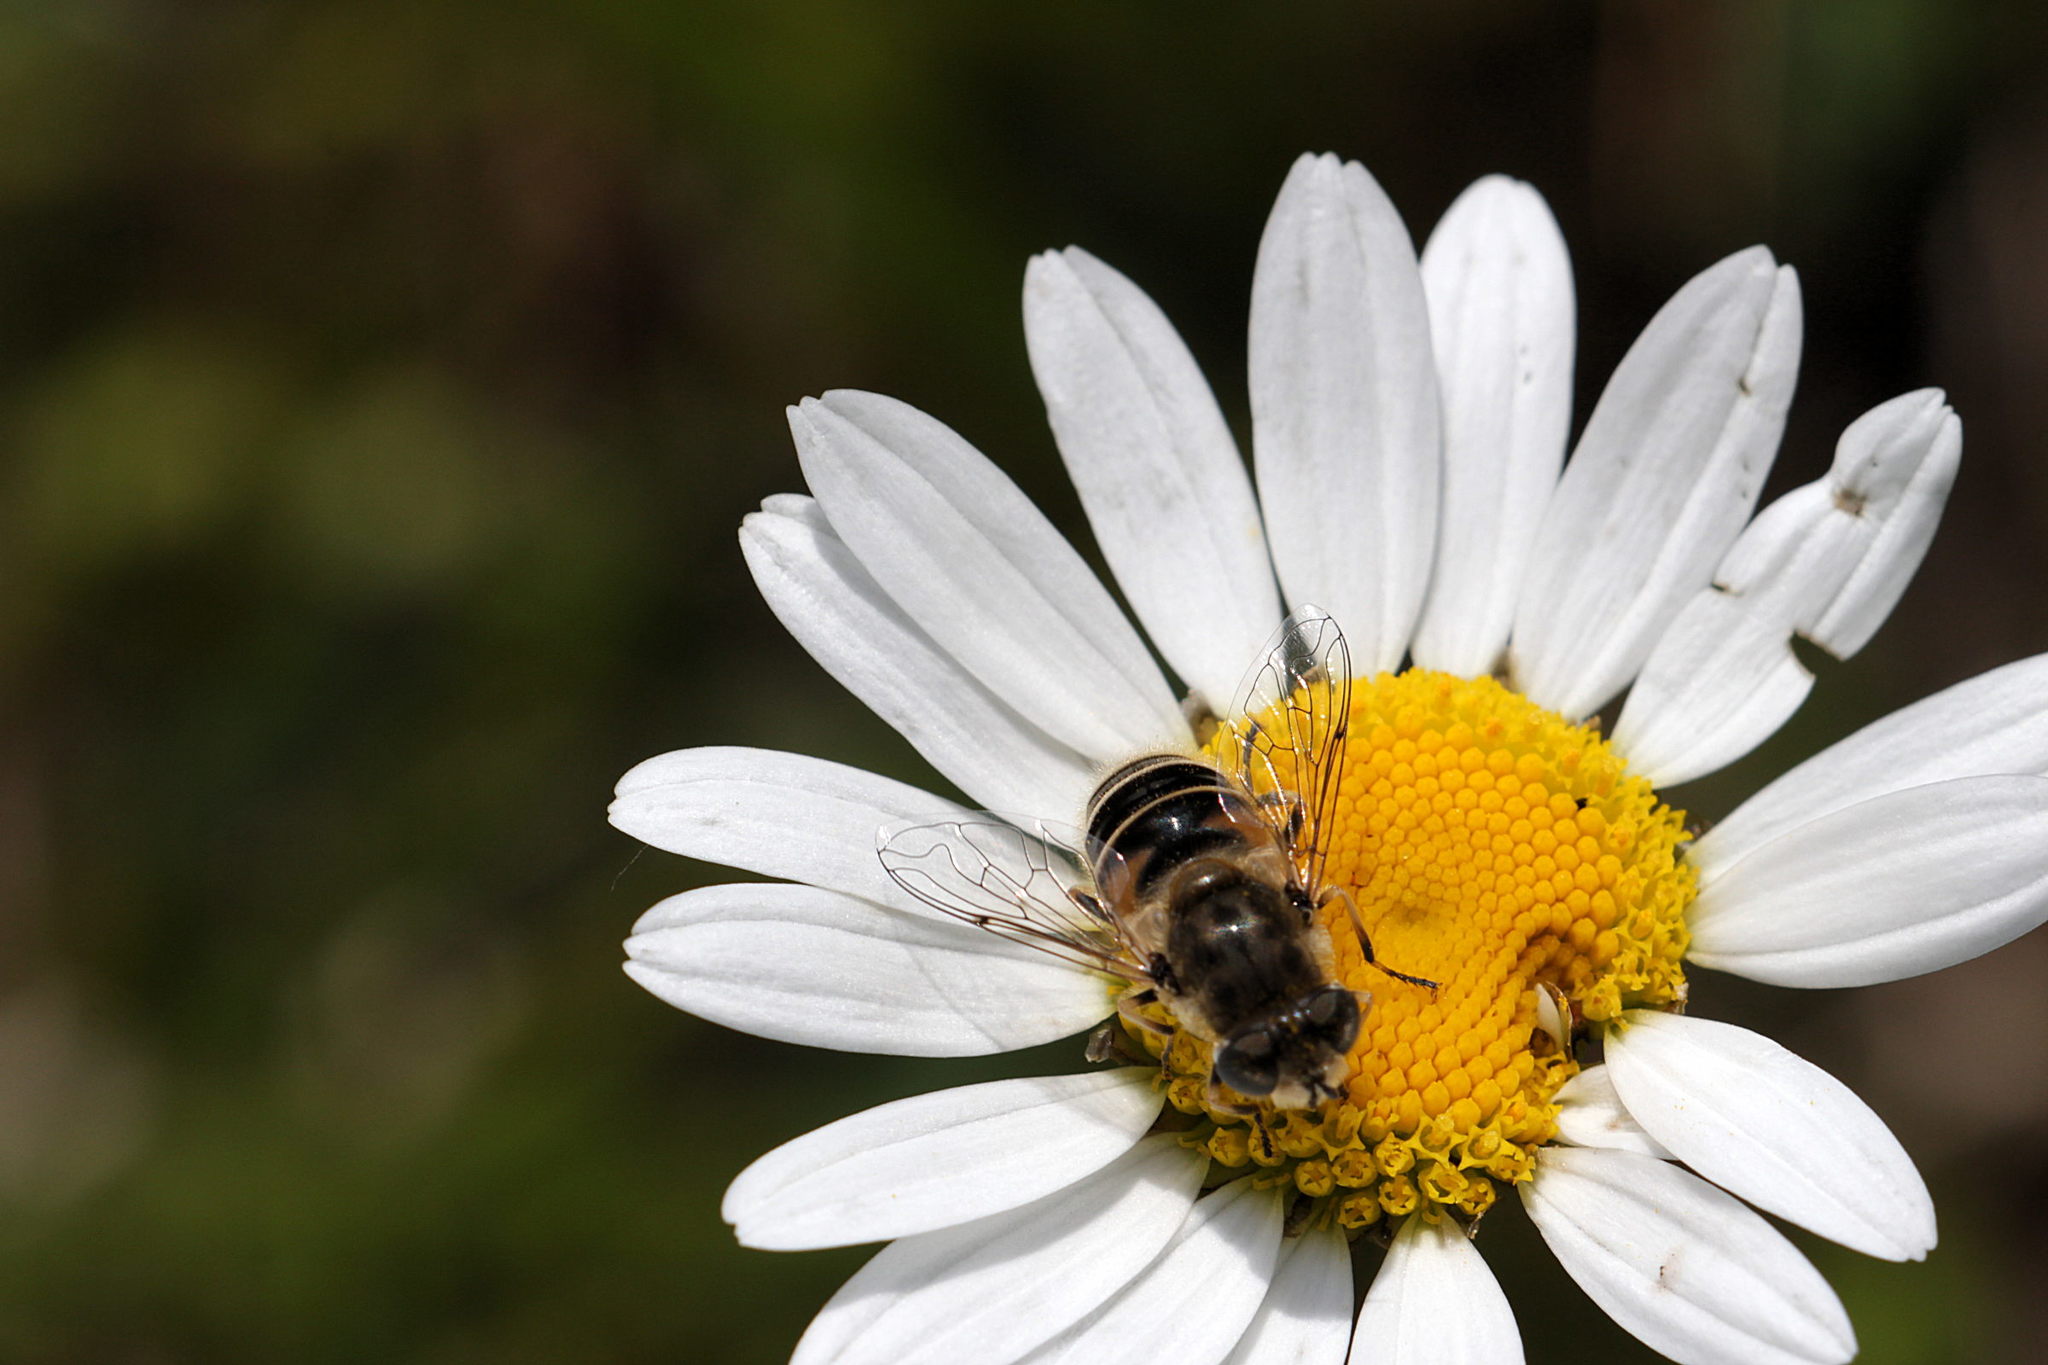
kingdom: Animalia
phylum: Arthropoda
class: Insecta
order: Diptera
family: Syrphidae
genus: Eristalis
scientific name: Eristalis arbustorum
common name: Hover fly
